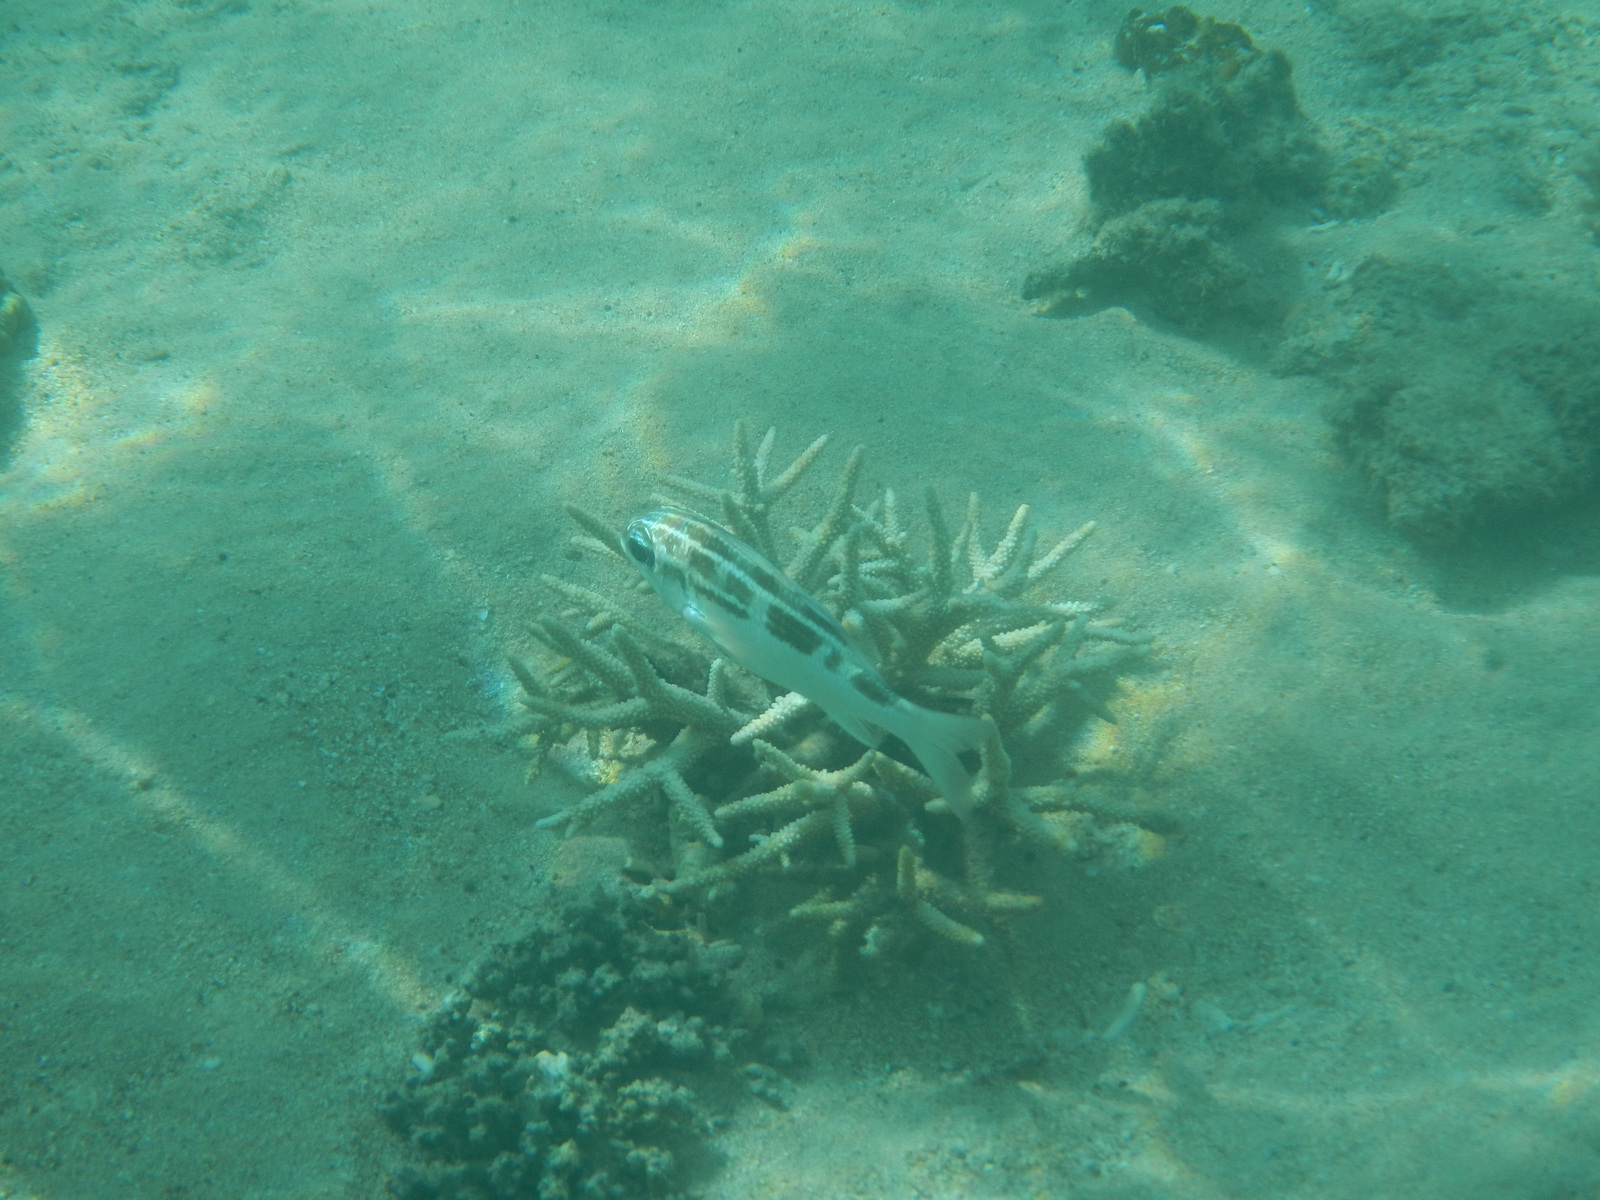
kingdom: Animalia
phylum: Chordata
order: Perciformes
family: Nemipteridae
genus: Scolopsis
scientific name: Scolopsis lineata
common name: Striped monocle bream
